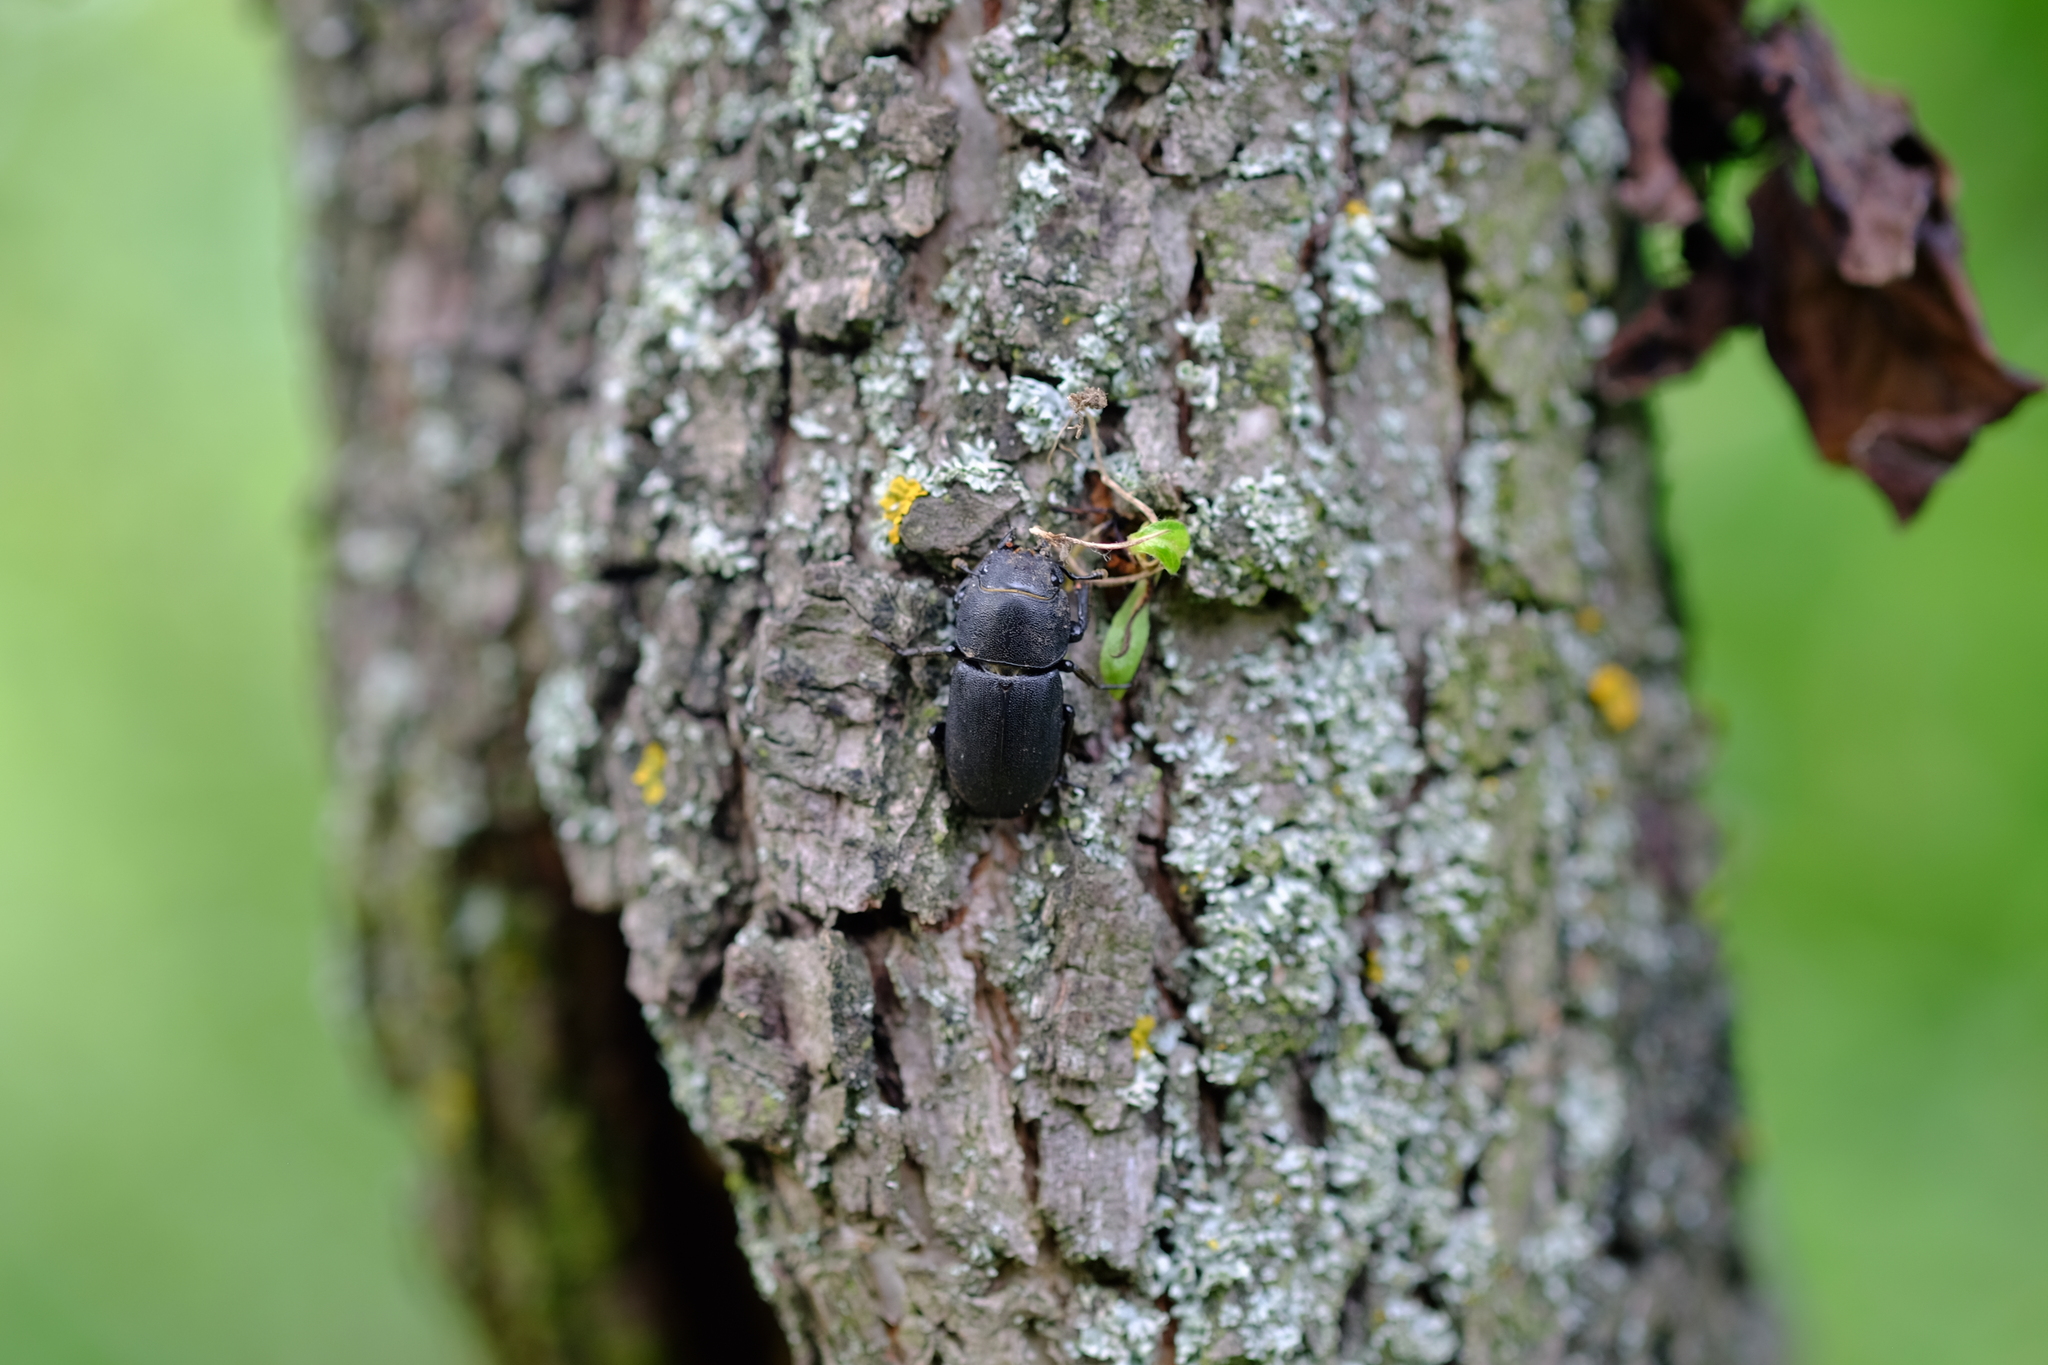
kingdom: Animalia
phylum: Arthropoda
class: Insecta
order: Coleoptera
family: Lucanidae
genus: Dorcus
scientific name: Dorcus parallelipipedus
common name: Lesser stag beetle
